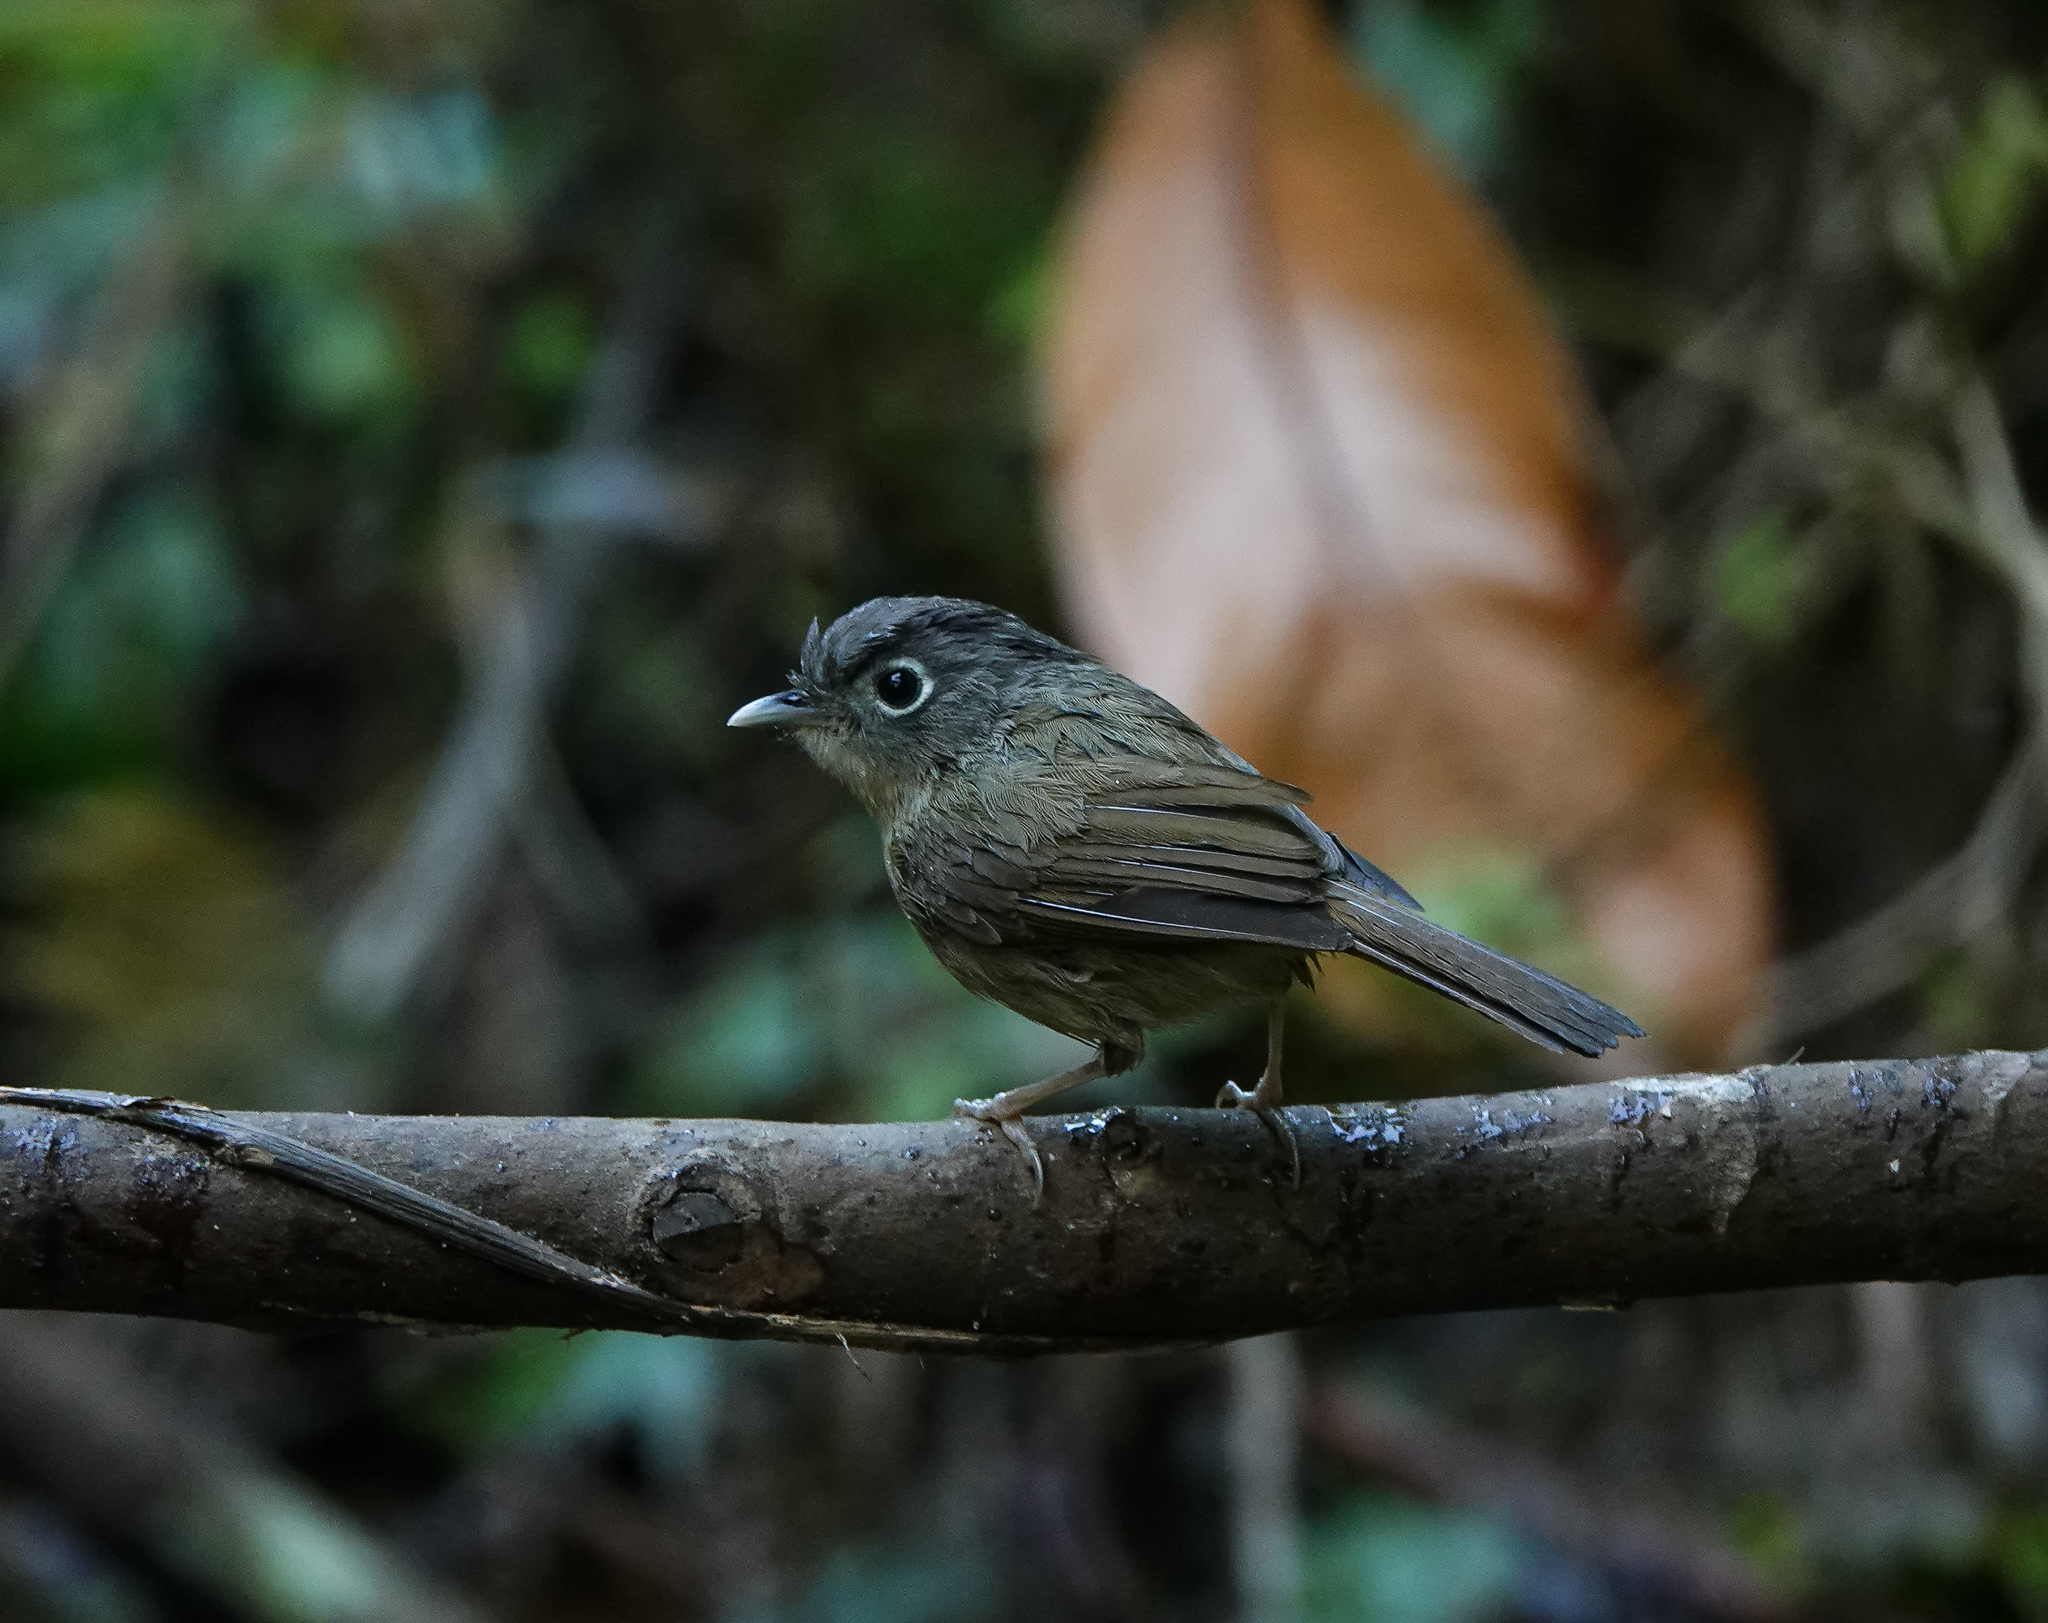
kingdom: Animalia
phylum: Chordata
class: Aves
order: Passeriformes
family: Pellorneidae
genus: Alcippe
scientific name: Alcippe nipalensis
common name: Nepal fulvetta
